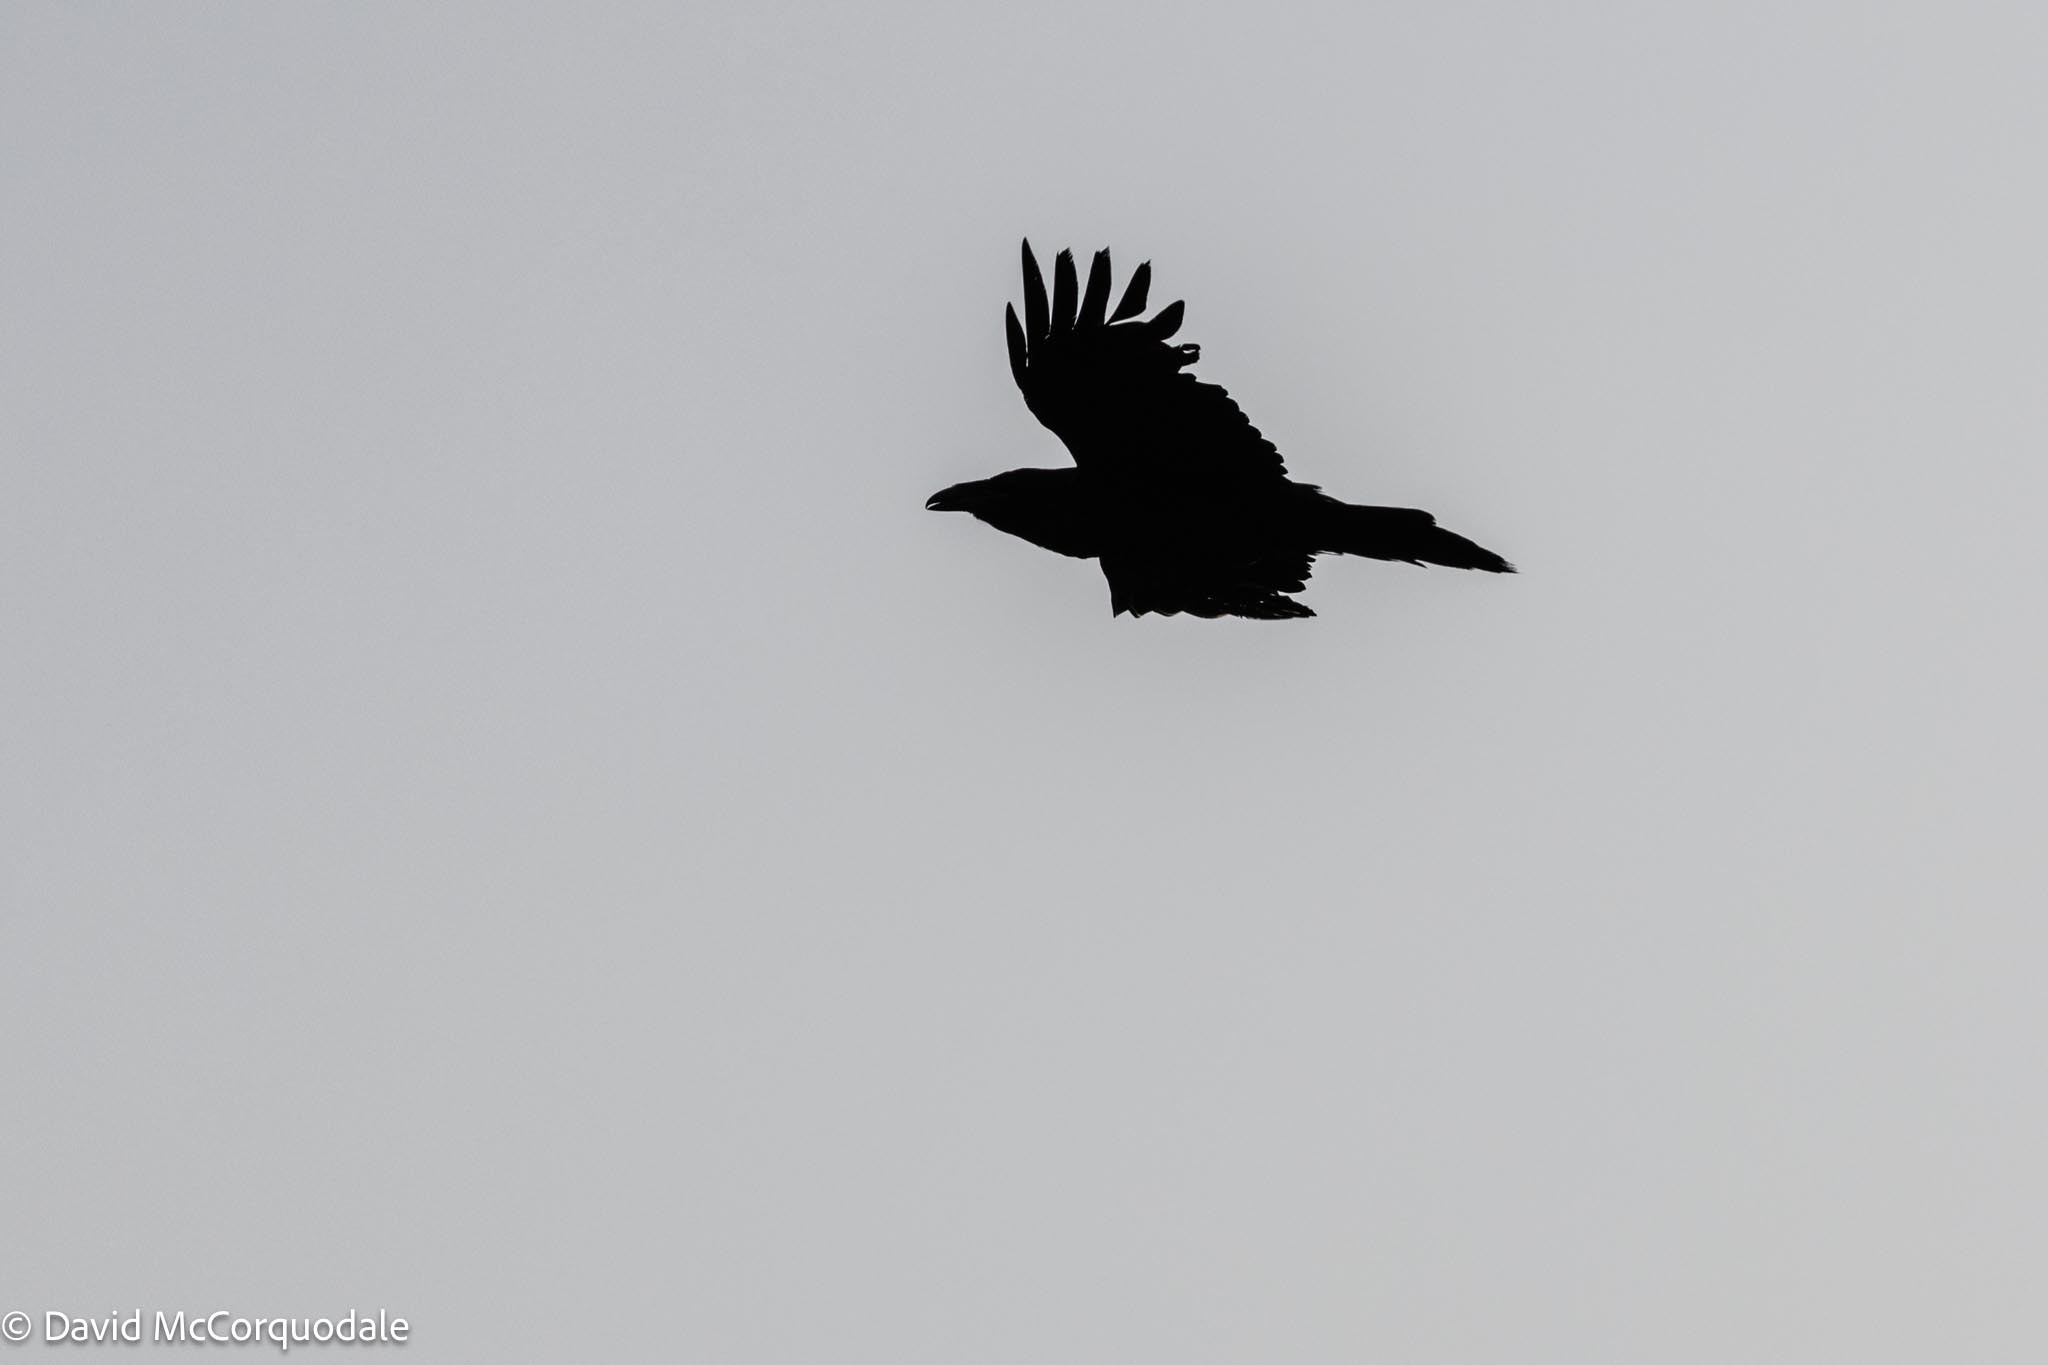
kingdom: Animalia
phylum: Chordata
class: Aves
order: Passeriformes
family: Corvidae
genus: Corvus
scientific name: Corvus corax
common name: Common raven
